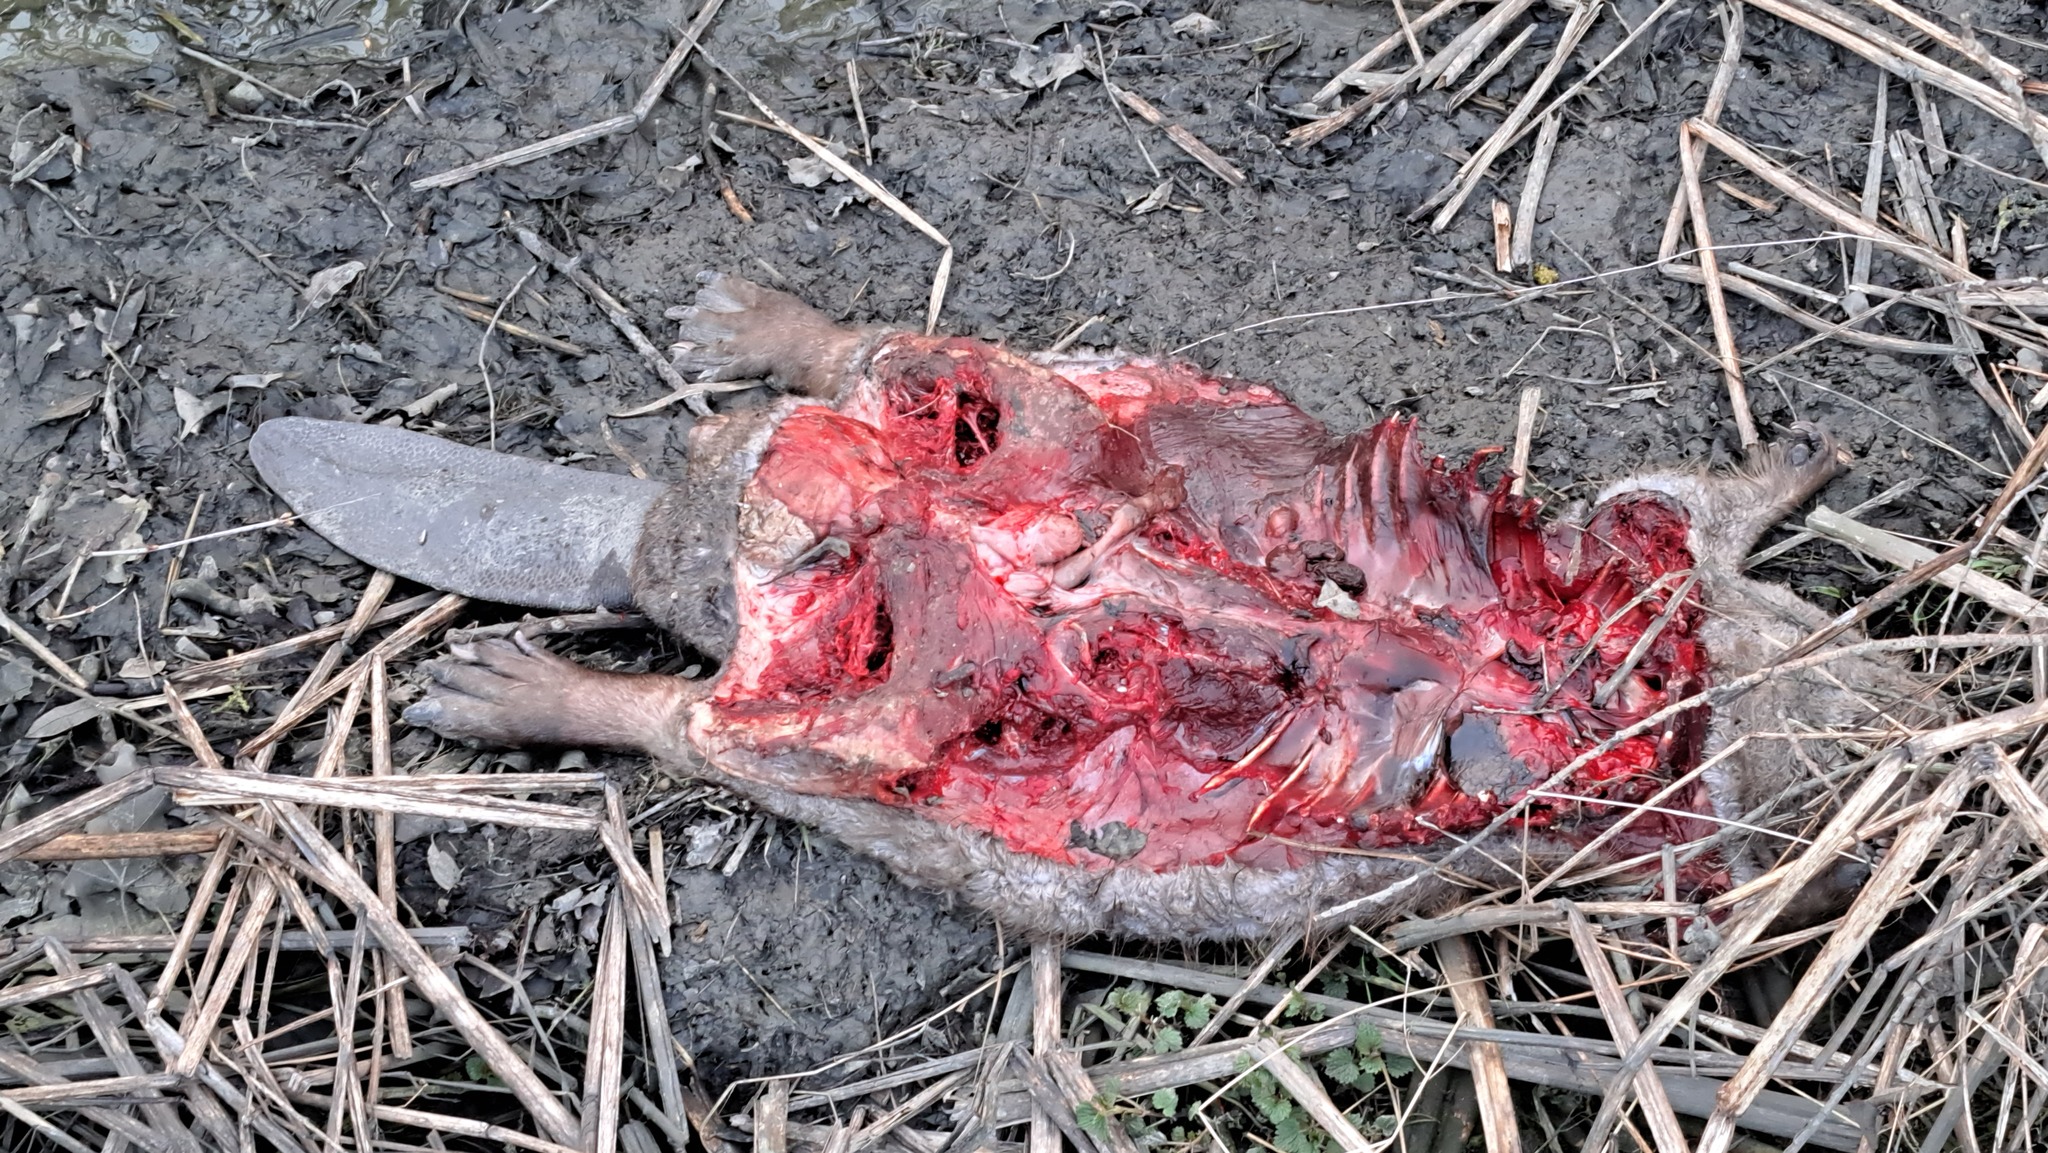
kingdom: Animalia
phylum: Chordata
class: Mammalia
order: Rodentia
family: Castoridae
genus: Castor
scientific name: Castor fiber
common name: Eurasian beaver
